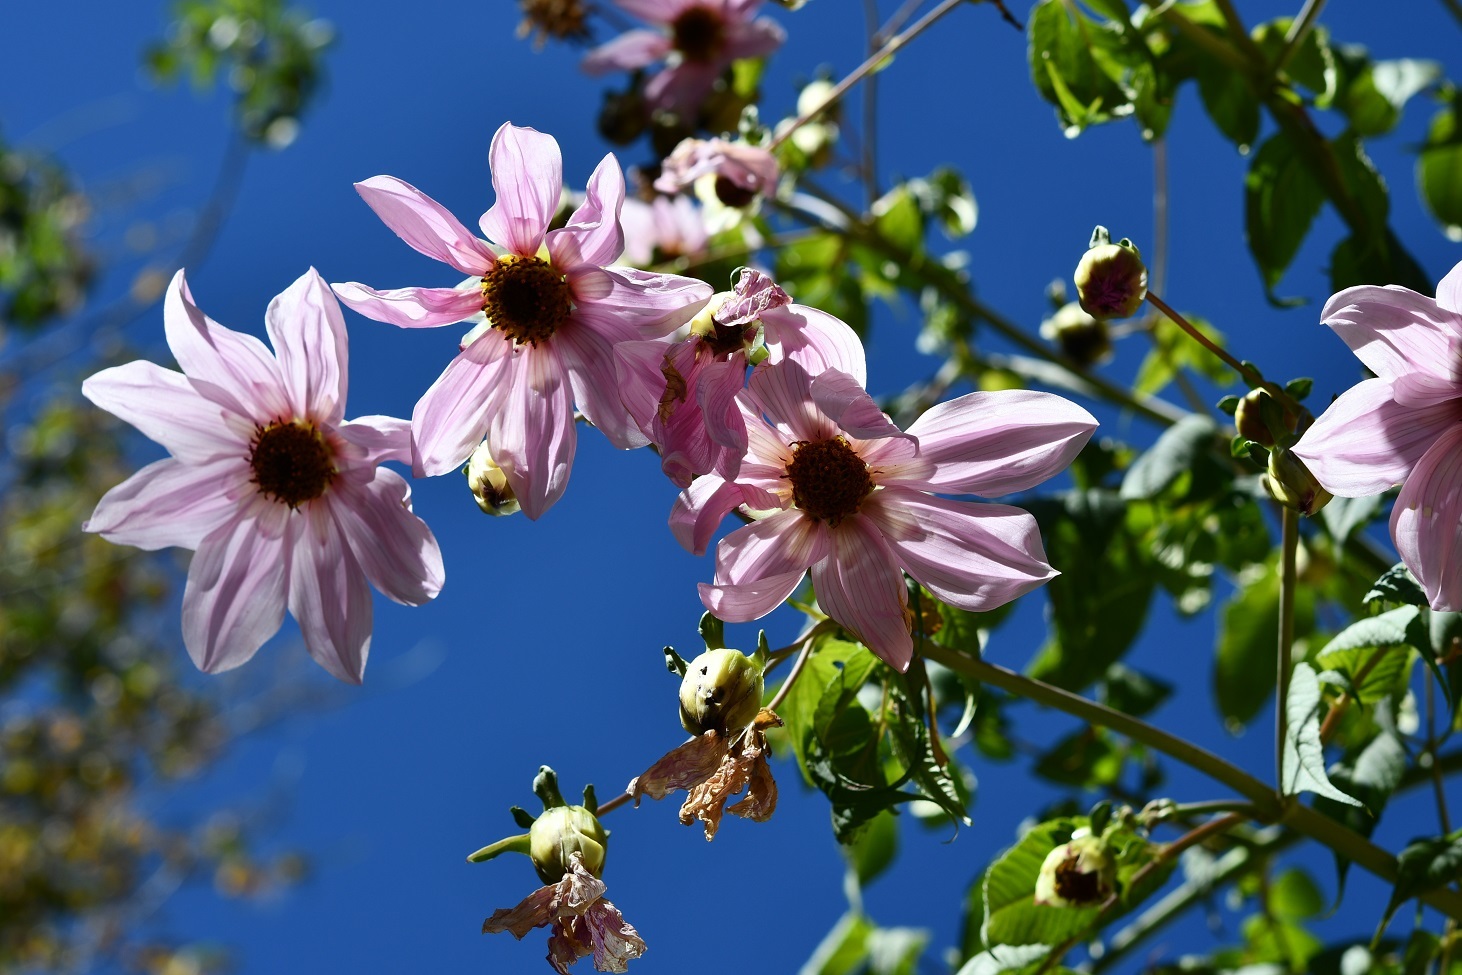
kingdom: Plantae
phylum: Tracheophyta
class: Magnoliopsida
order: Asterales
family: Asteraceae
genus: Dahlia
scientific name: Dahlia imperialis
